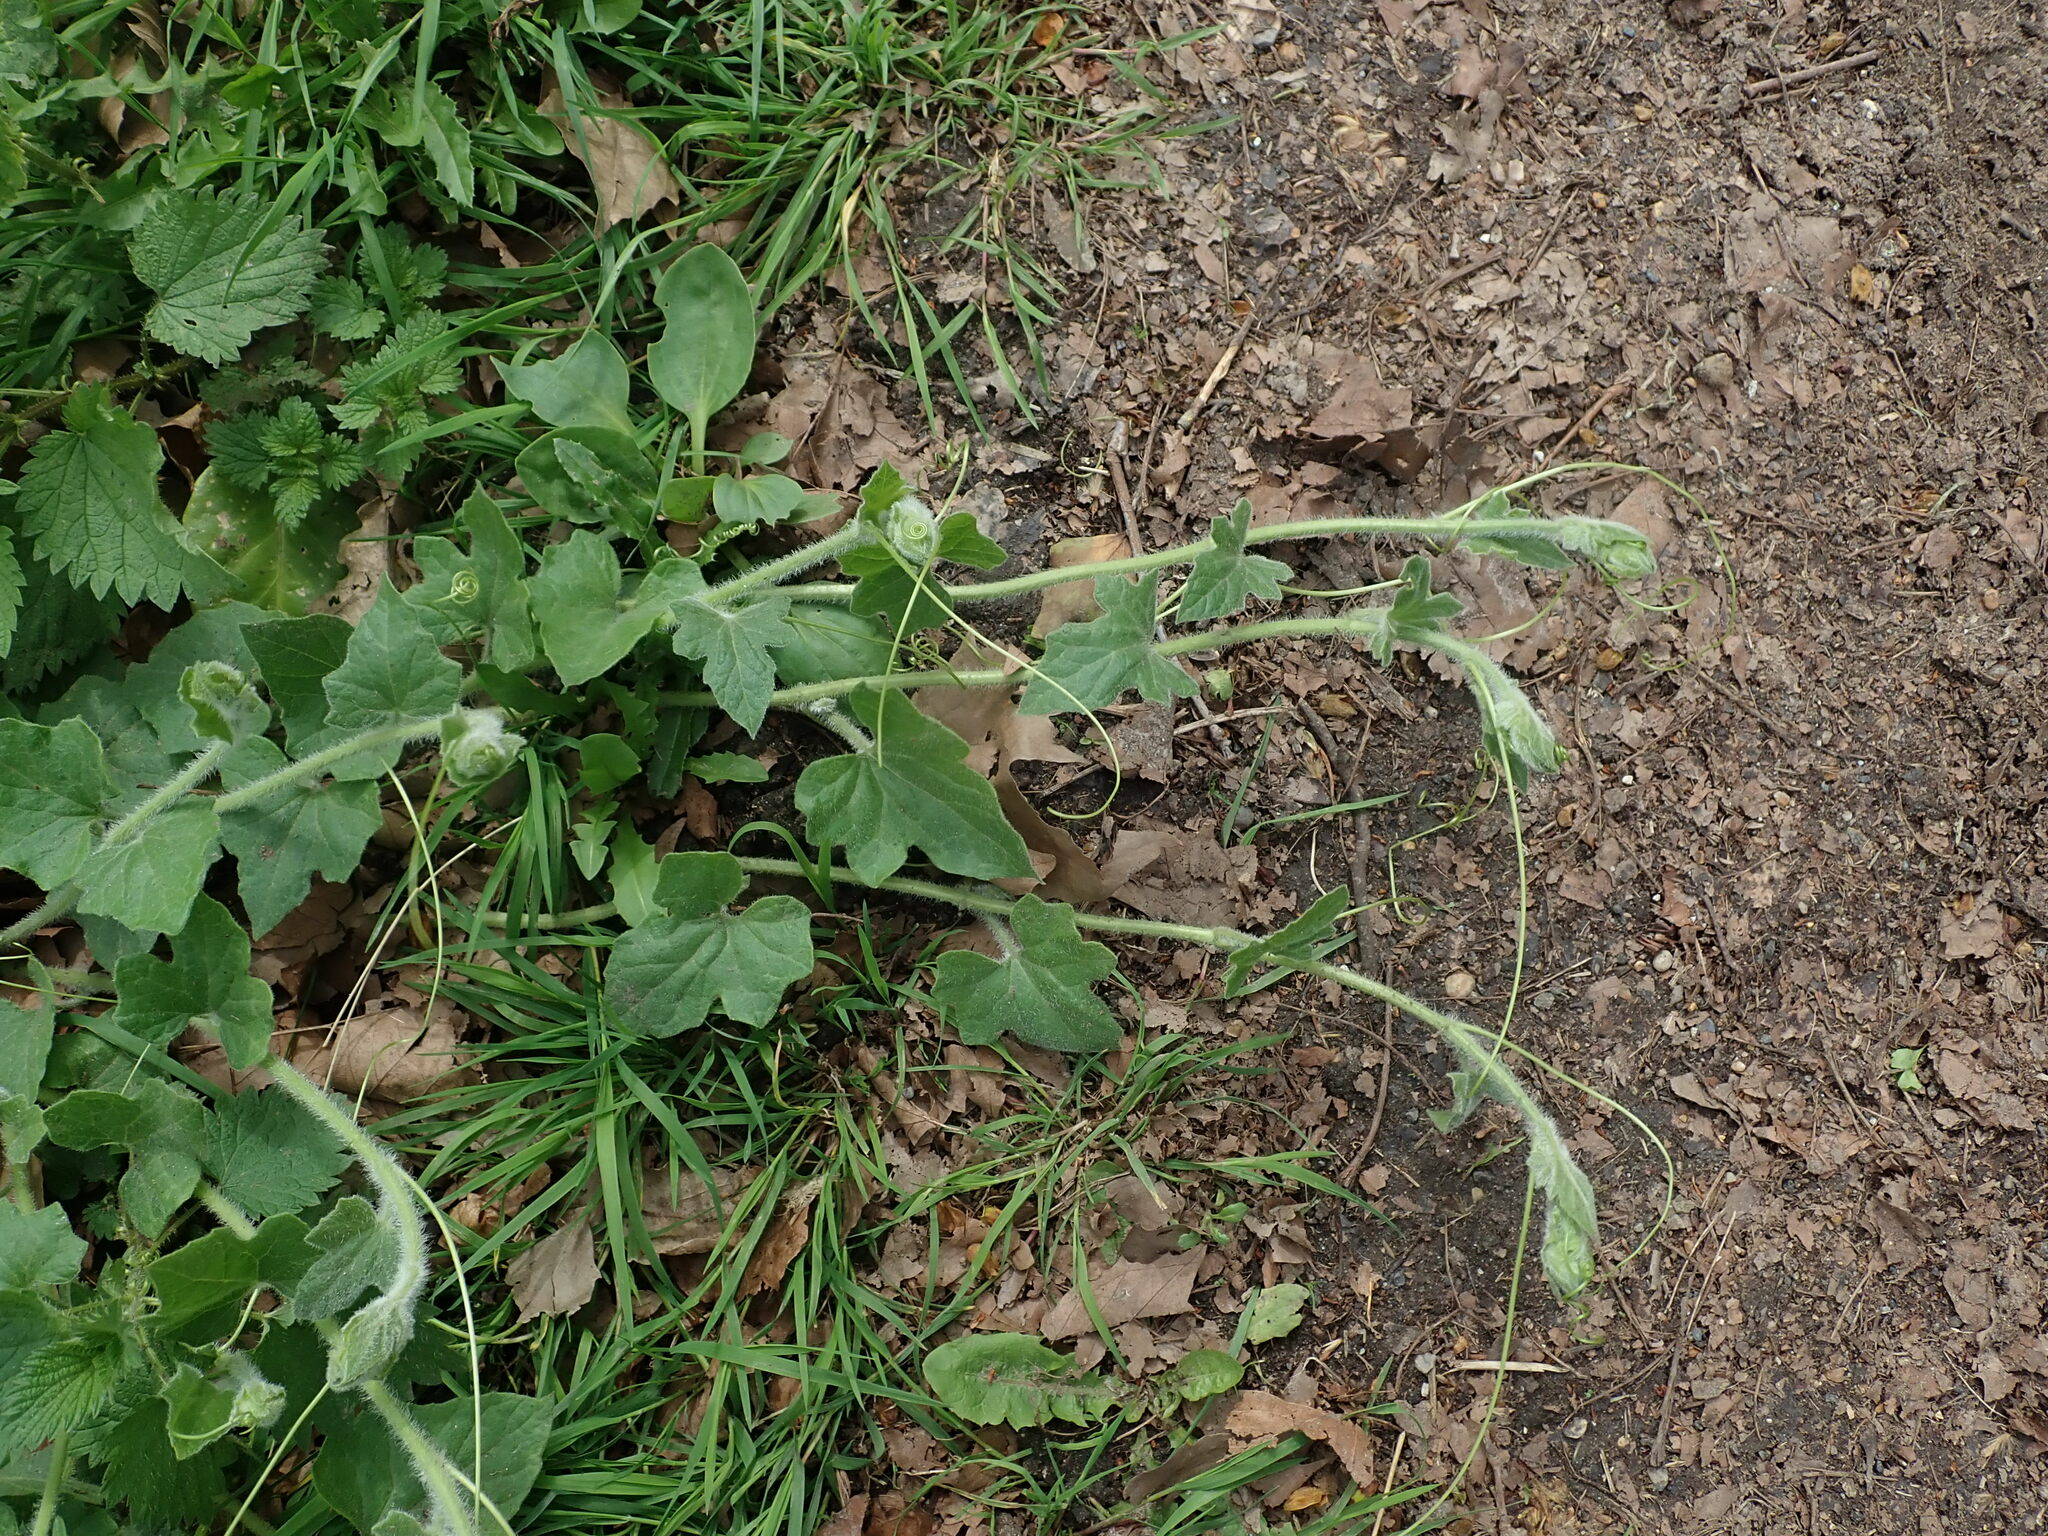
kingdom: Plantae
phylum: Tracheophyta
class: Magnoliopsida
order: Cucurbitales
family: Cucurbitaceae
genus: Bryonia
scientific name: Bryonia dioica
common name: White bryony
